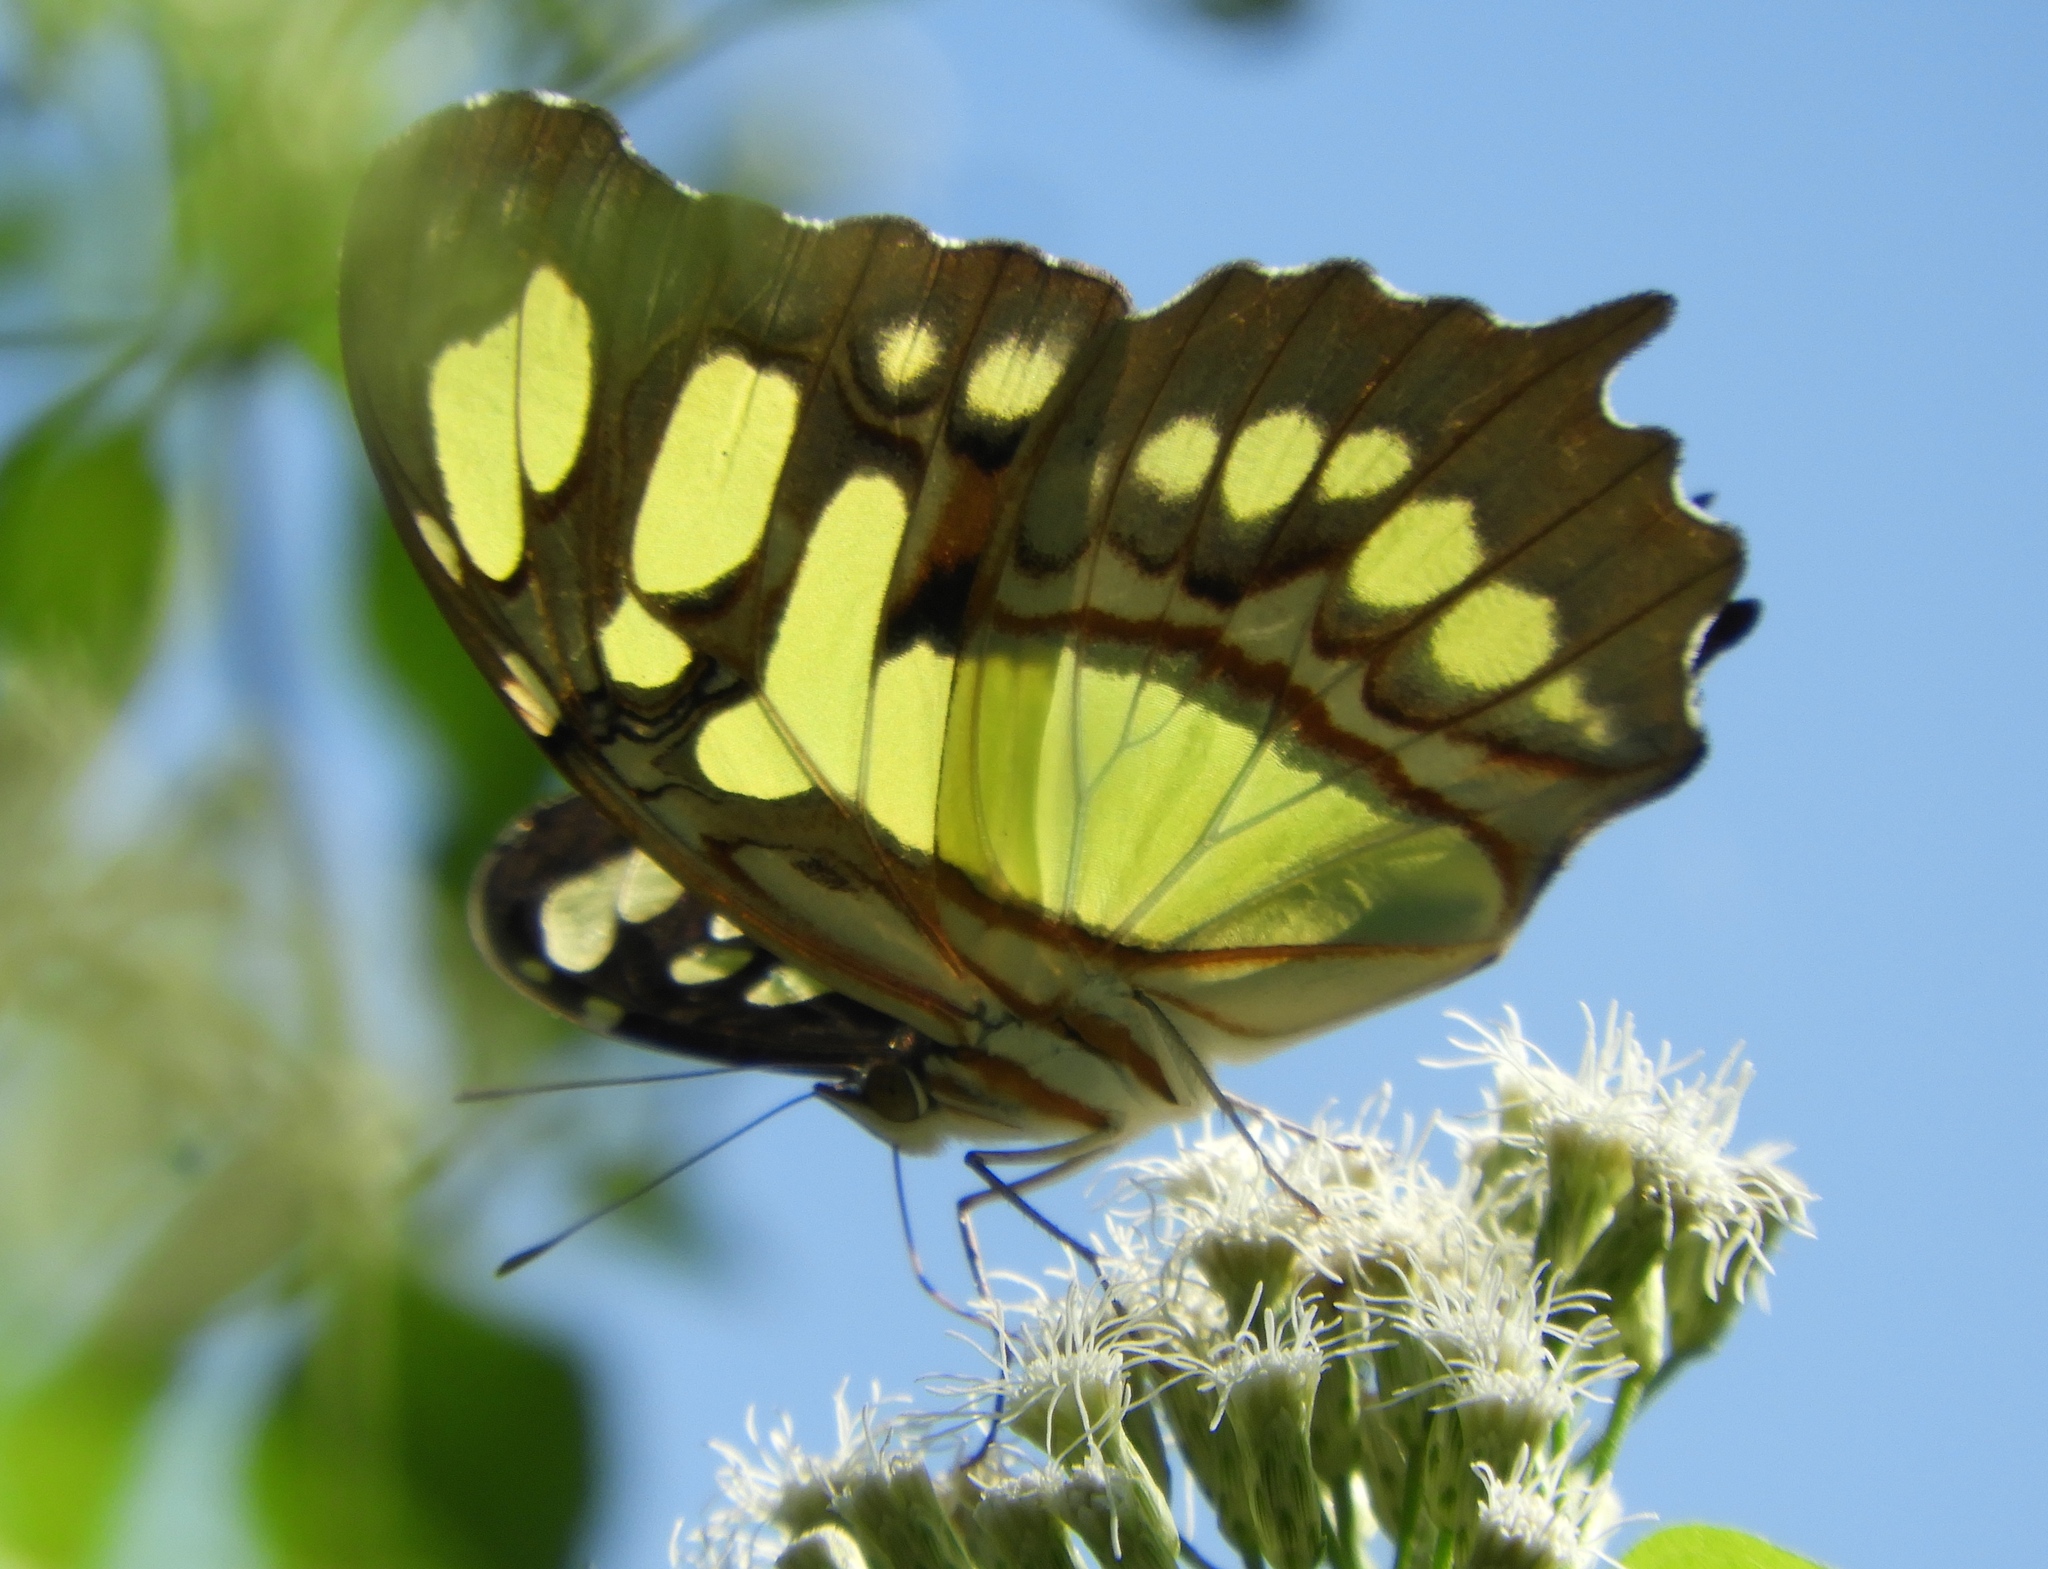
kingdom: Animalia
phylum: Arthropoda
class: Insecta
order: Lepidoptera
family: Nymphalidae
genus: Siproeta
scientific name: Siproeta stelenes
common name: Malachite
